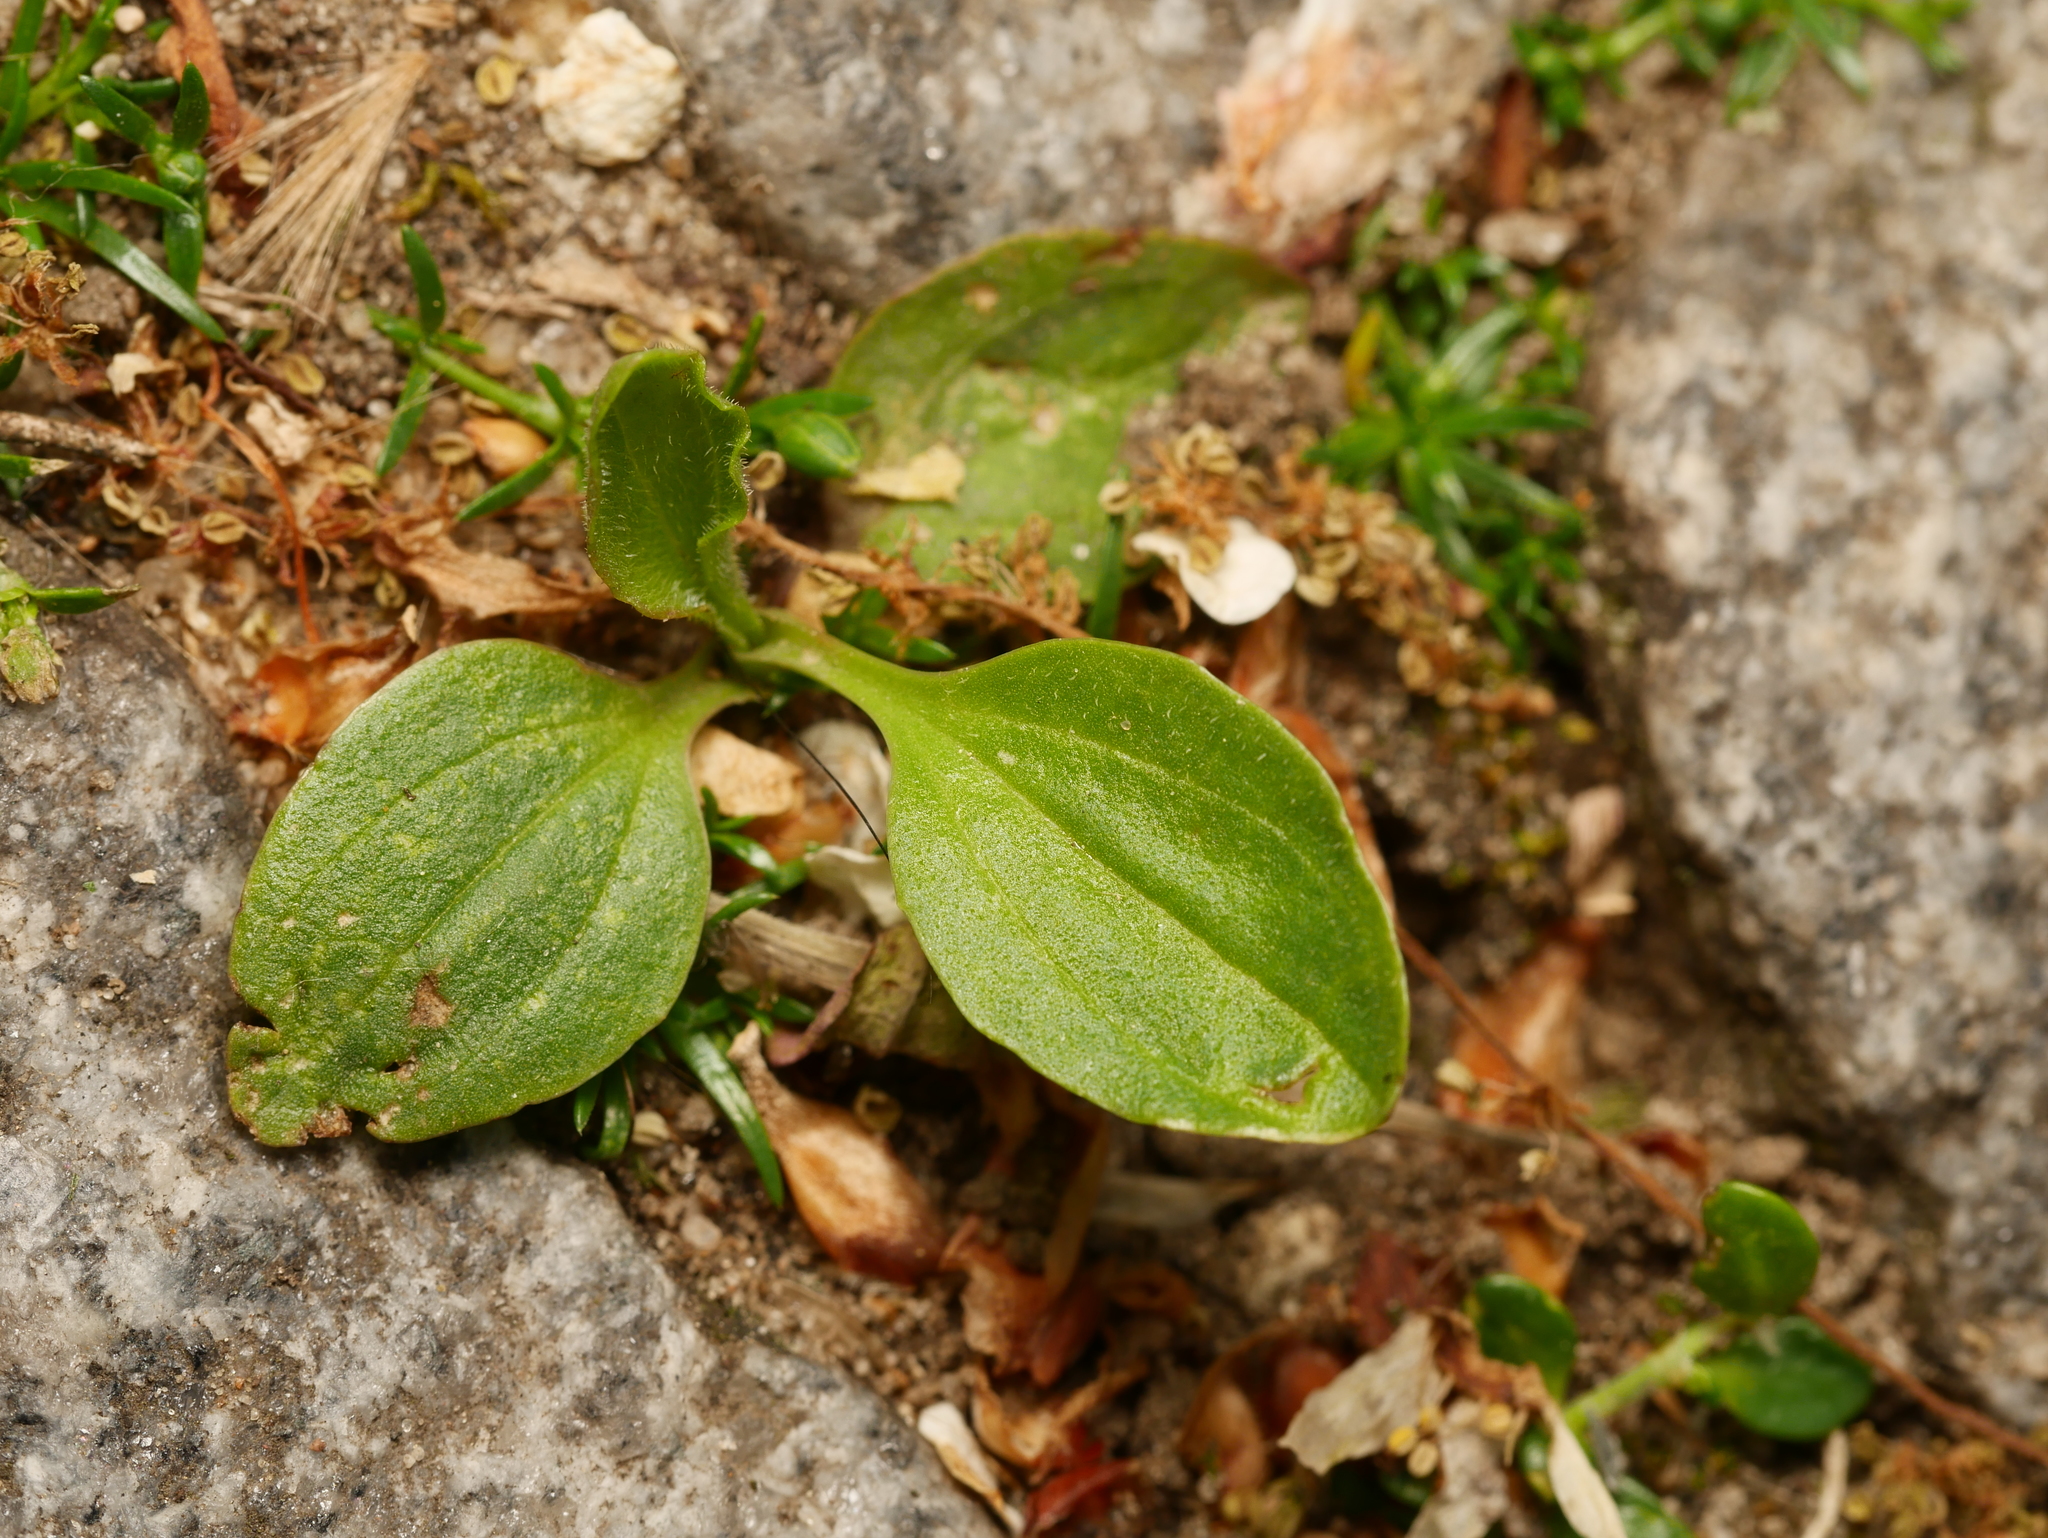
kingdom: Plantae
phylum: Tracheophyta
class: Magnoliopsida
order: Lamiales
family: Plantaginaceae
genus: Plantago
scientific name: Plantago major
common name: Common plantain
